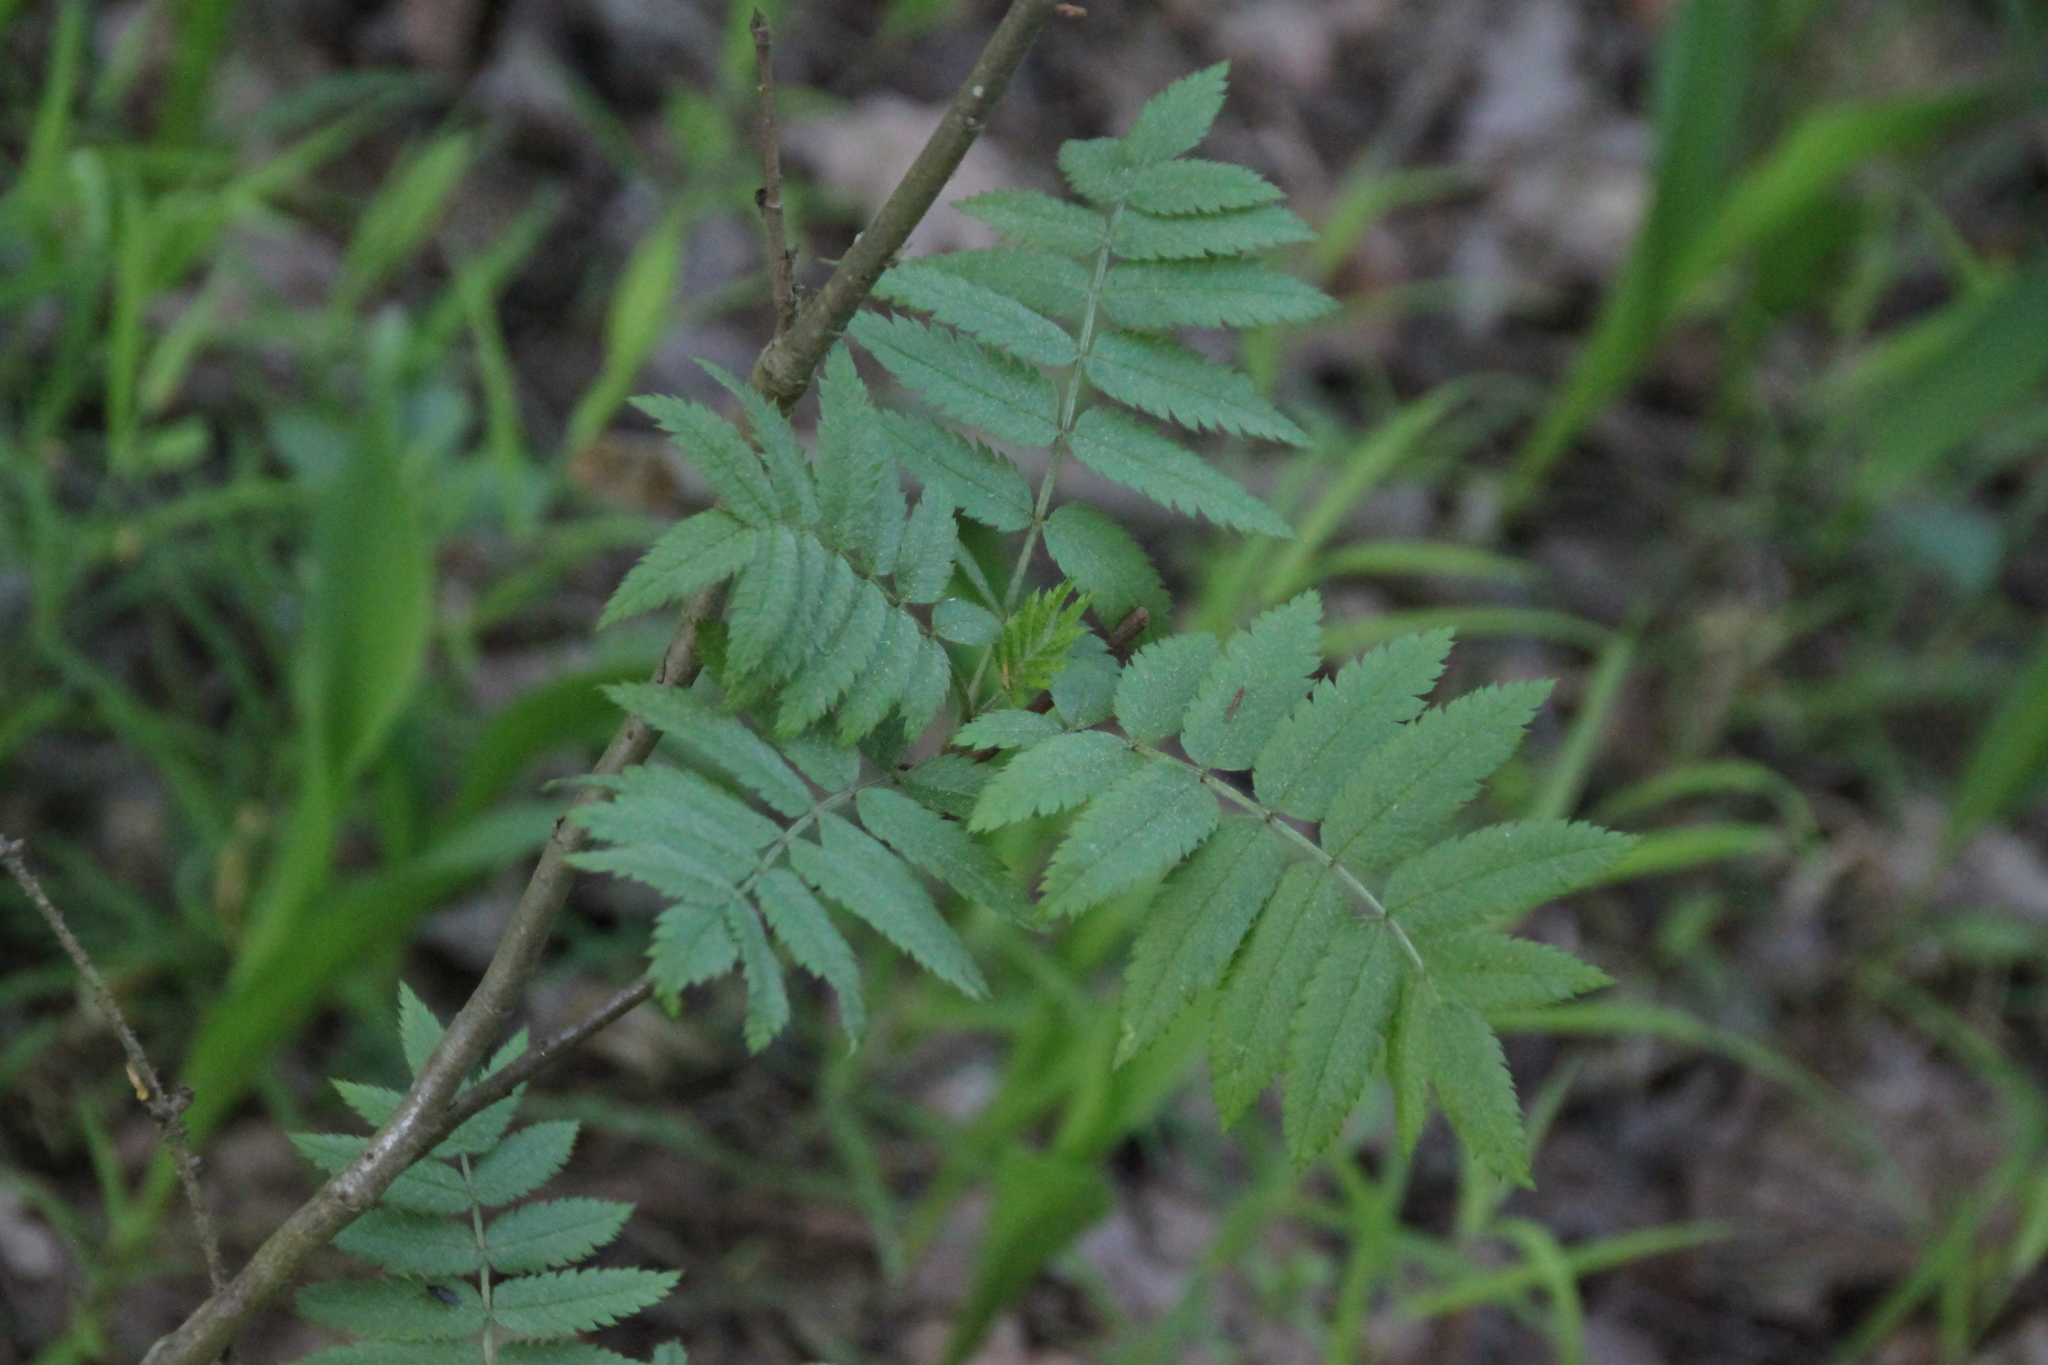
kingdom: Plantae
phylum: Tracheophyta
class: Magnoliopsida
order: Rosales
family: Rosaceae
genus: Sorbus
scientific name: Sorbus aucuparia
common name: Rowan
